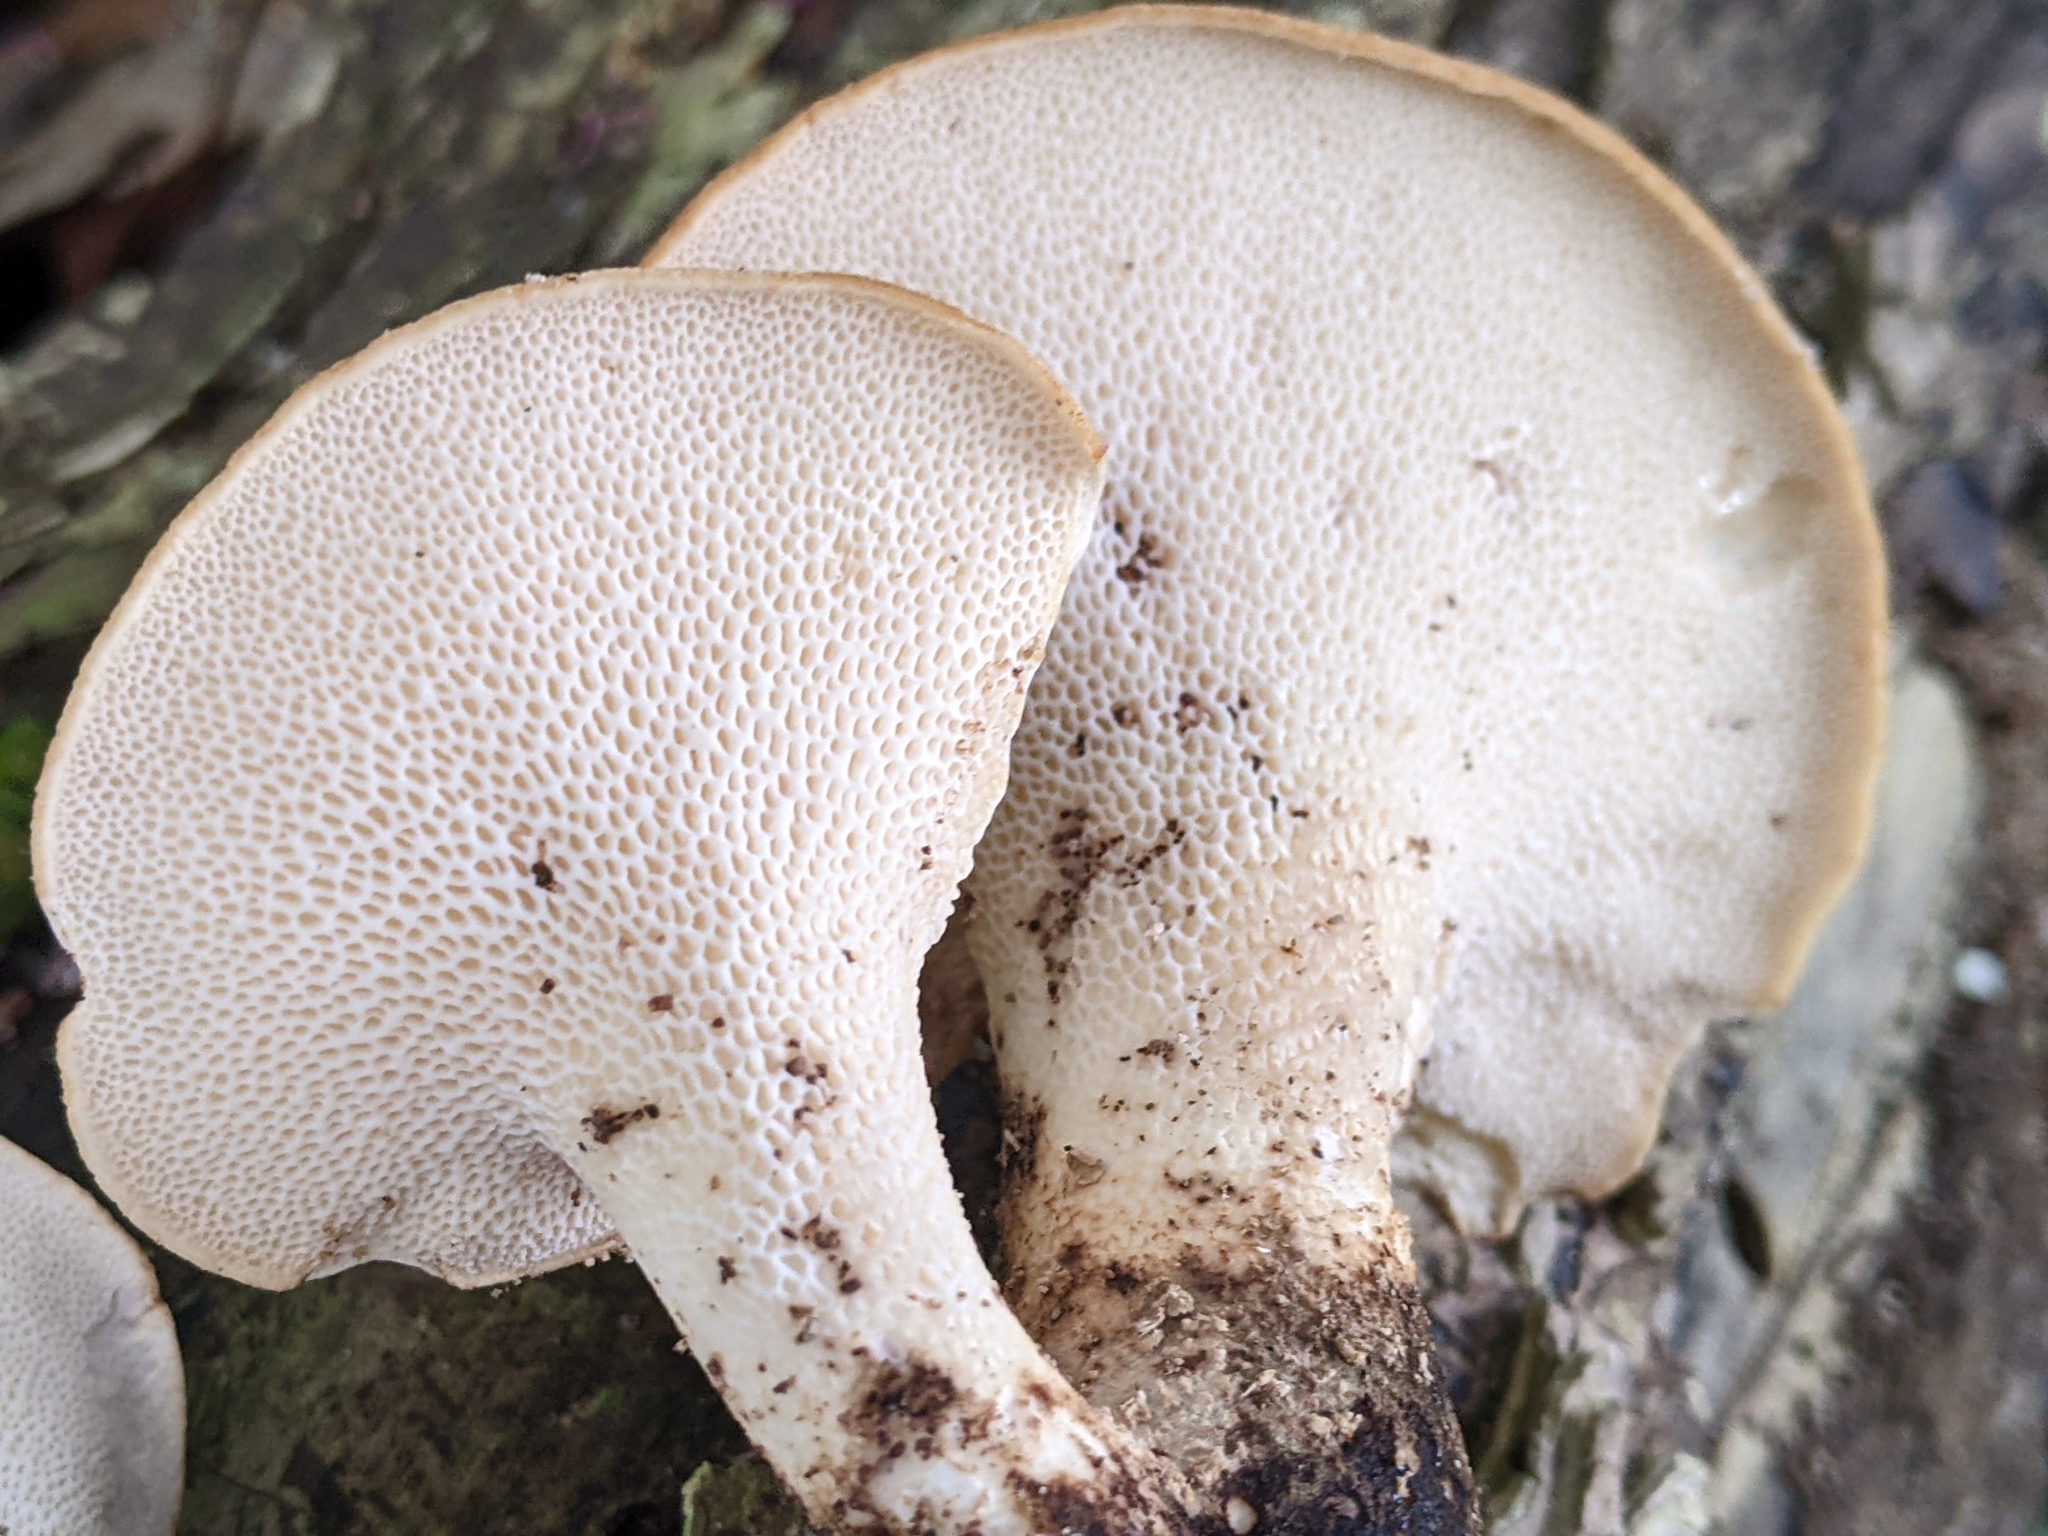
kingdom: Fungi
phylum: Basidiomycota
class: Agaricomycetes
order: Polyporales
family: Polyporaceae
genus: Cerioporus
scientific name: Cerioporus squamosus
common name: Dryad's saddle
